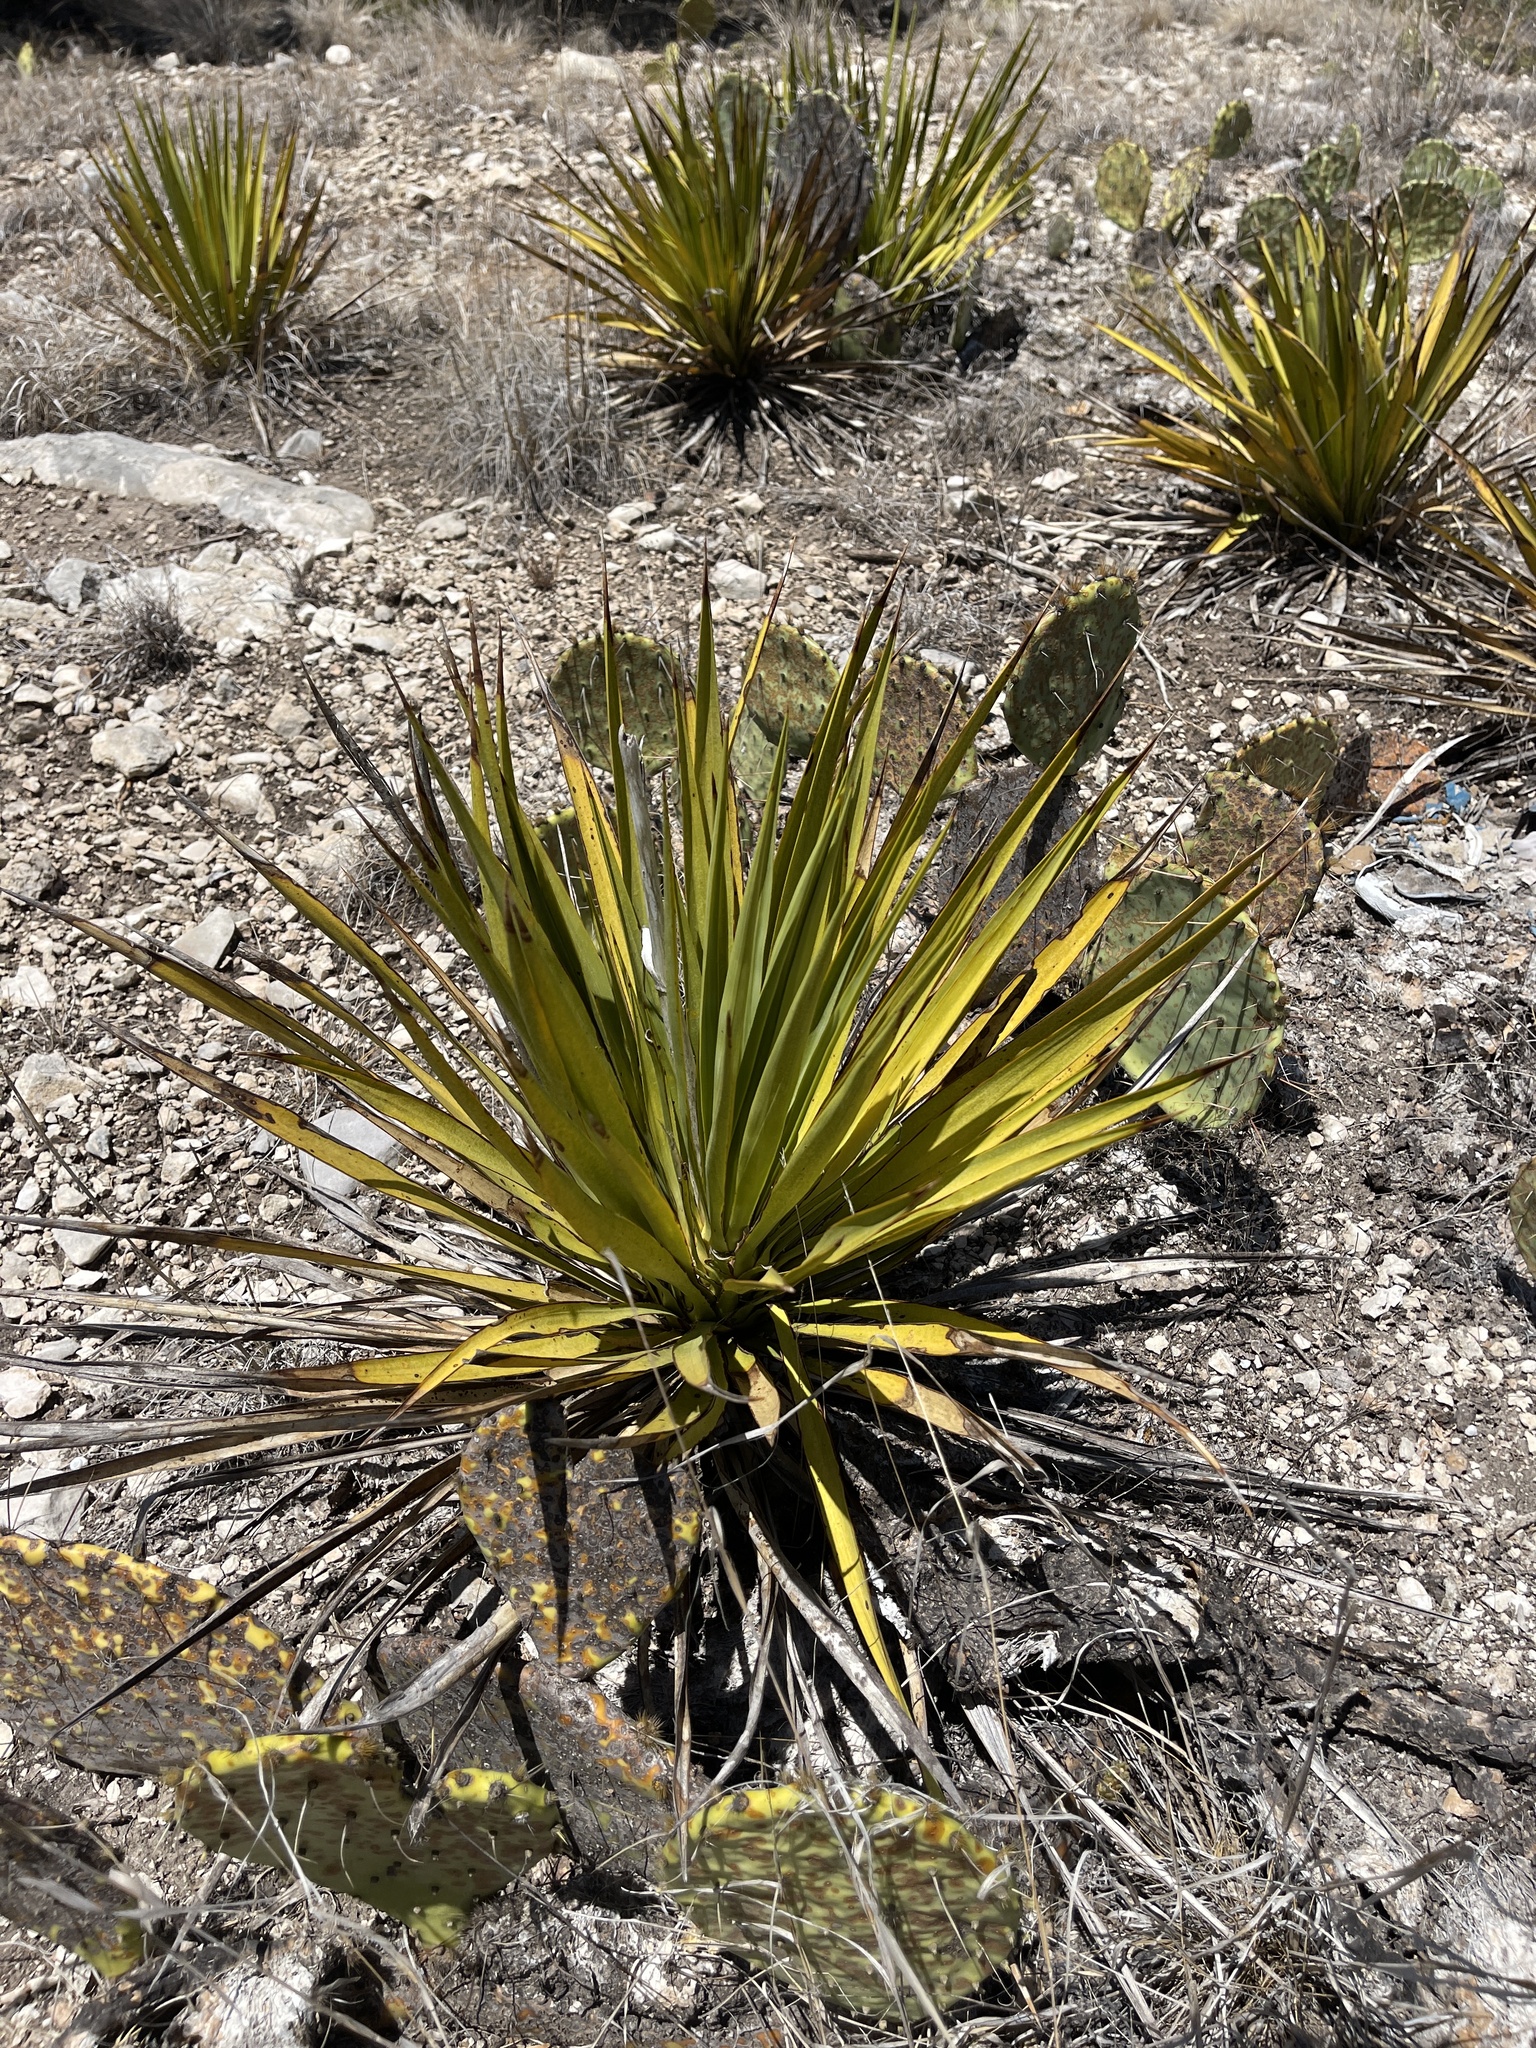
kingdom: Plantae
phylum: Tracheophyta
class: Liliopsida
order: Asparagales
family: Asparagaceae
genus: Yucca
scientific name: Yucca reverchonii
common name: San angelo yucca
